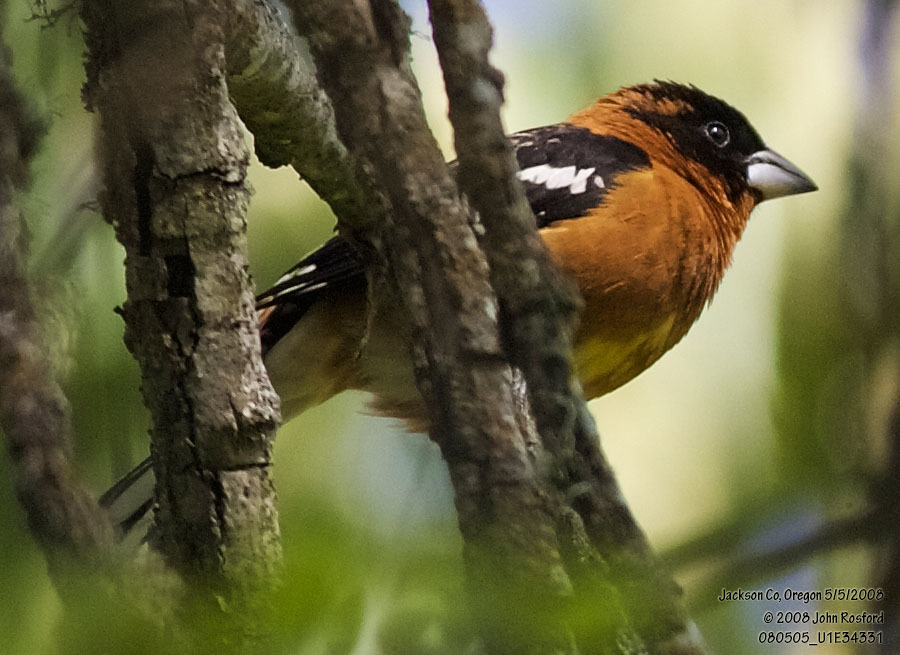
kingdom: Animalia
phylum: Chordata
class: Aves
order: Passeriformes
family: Cardinalidae
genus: Pheucticus
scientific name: Pheucticus melanocephalus
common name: Black-headed grosbeak
